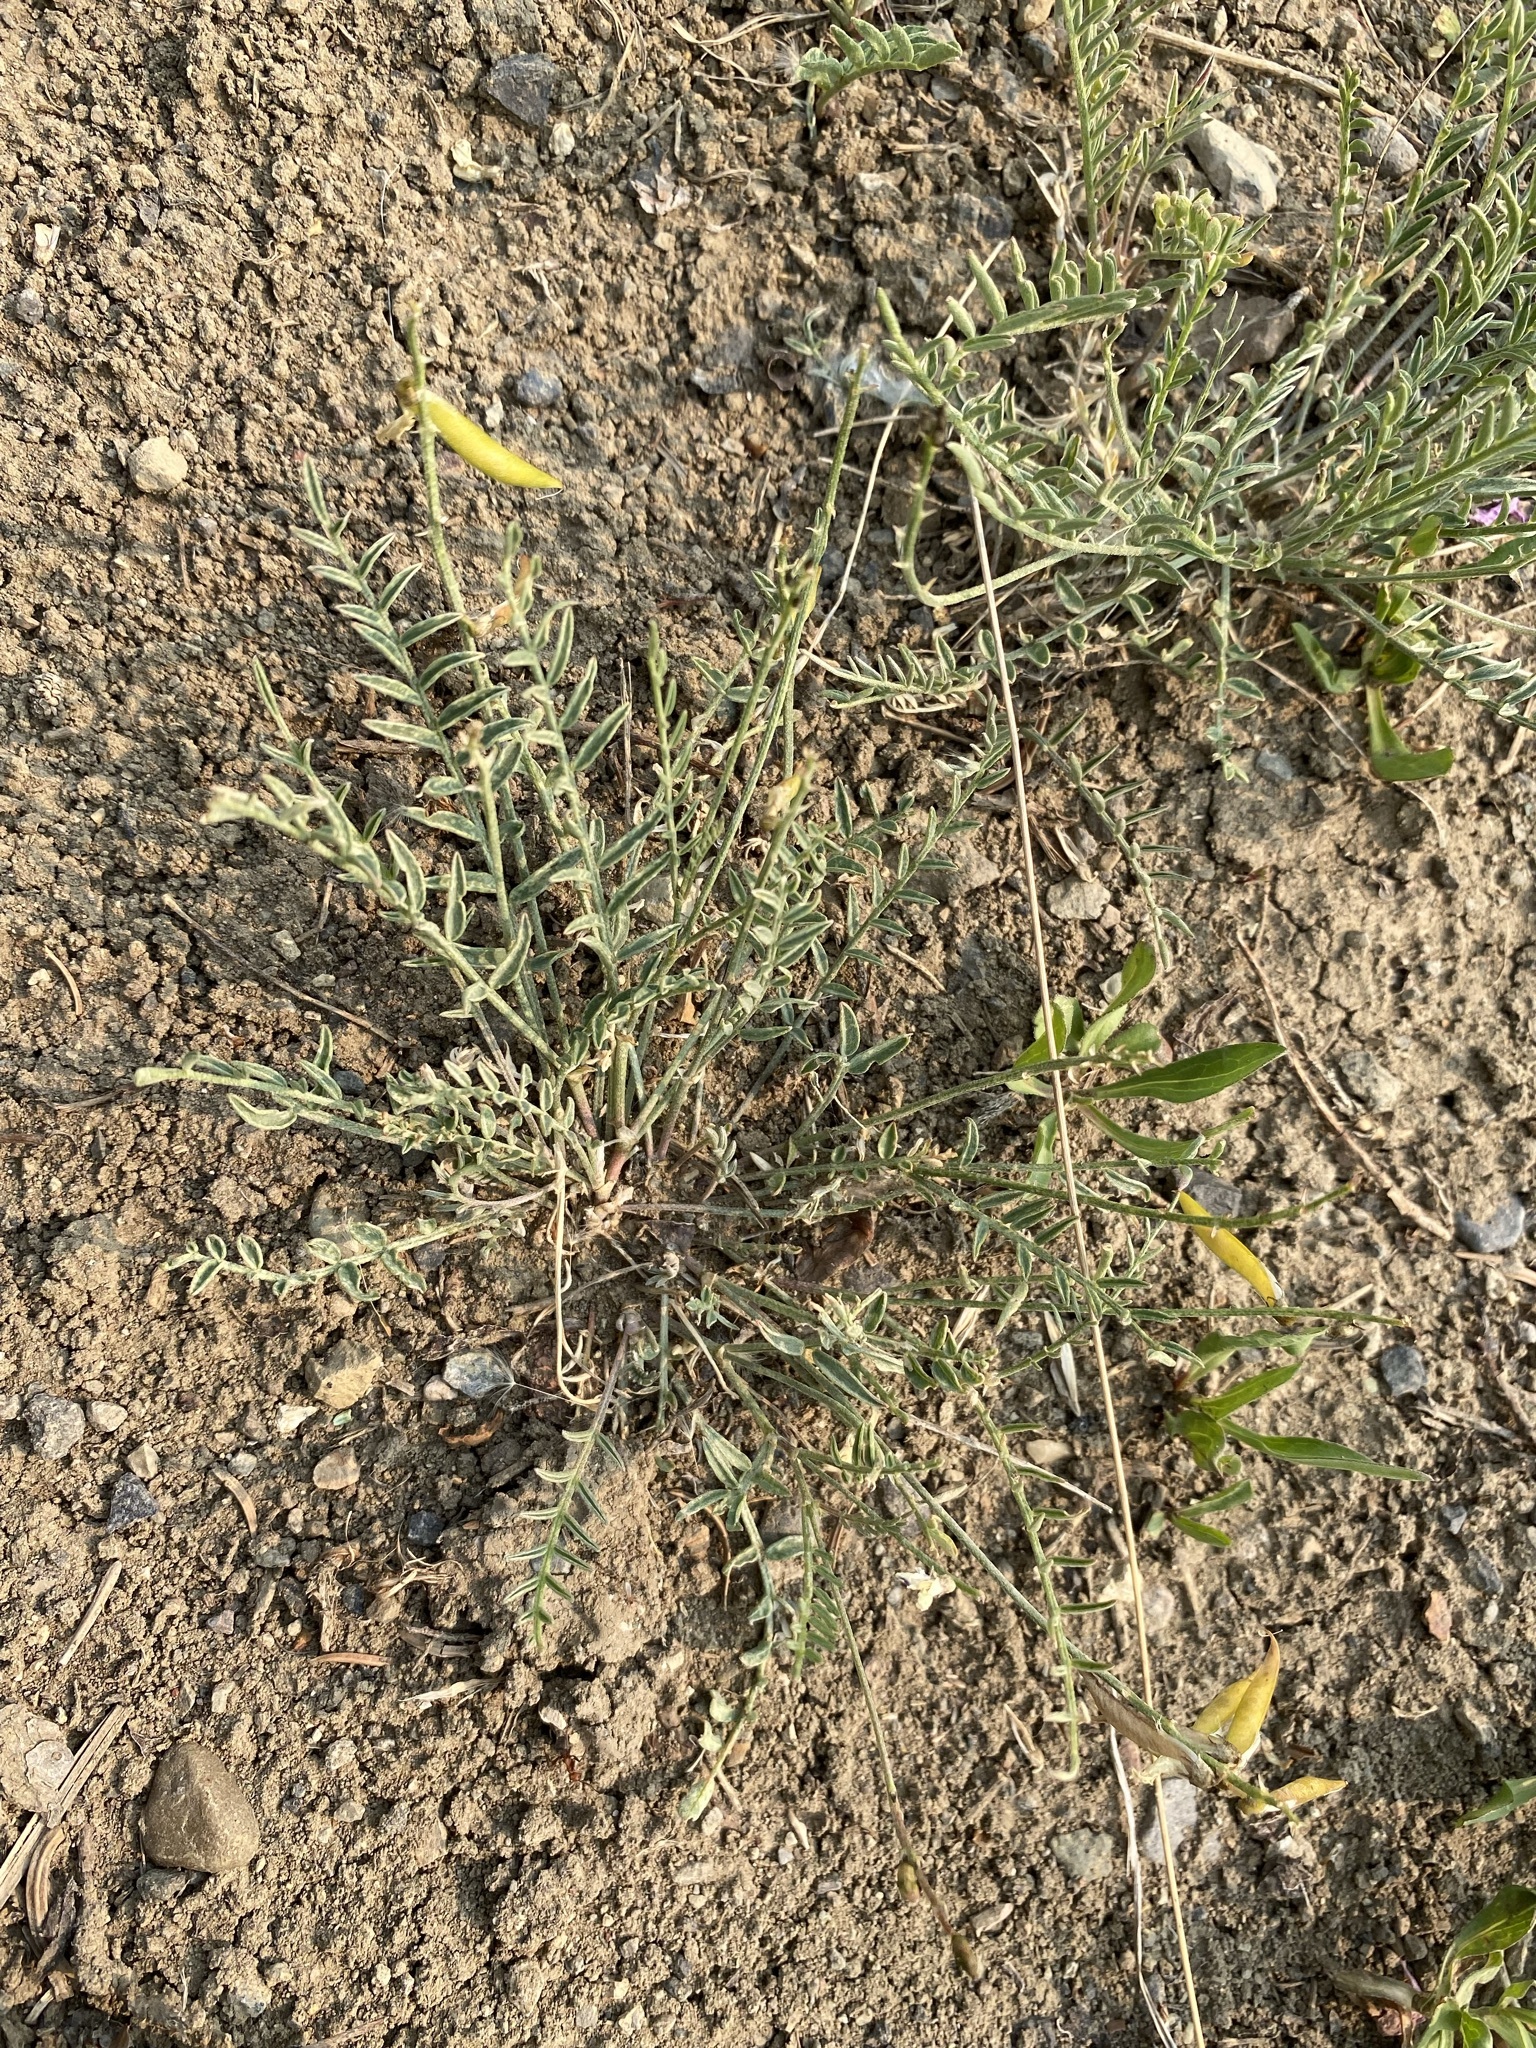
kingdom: Plantae
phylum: Tracheophyta
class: Magnoliopsida
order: Fabales
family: Fabaceae
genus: Astragalus
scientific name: Astragalus miser
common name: Timber milkvetch
